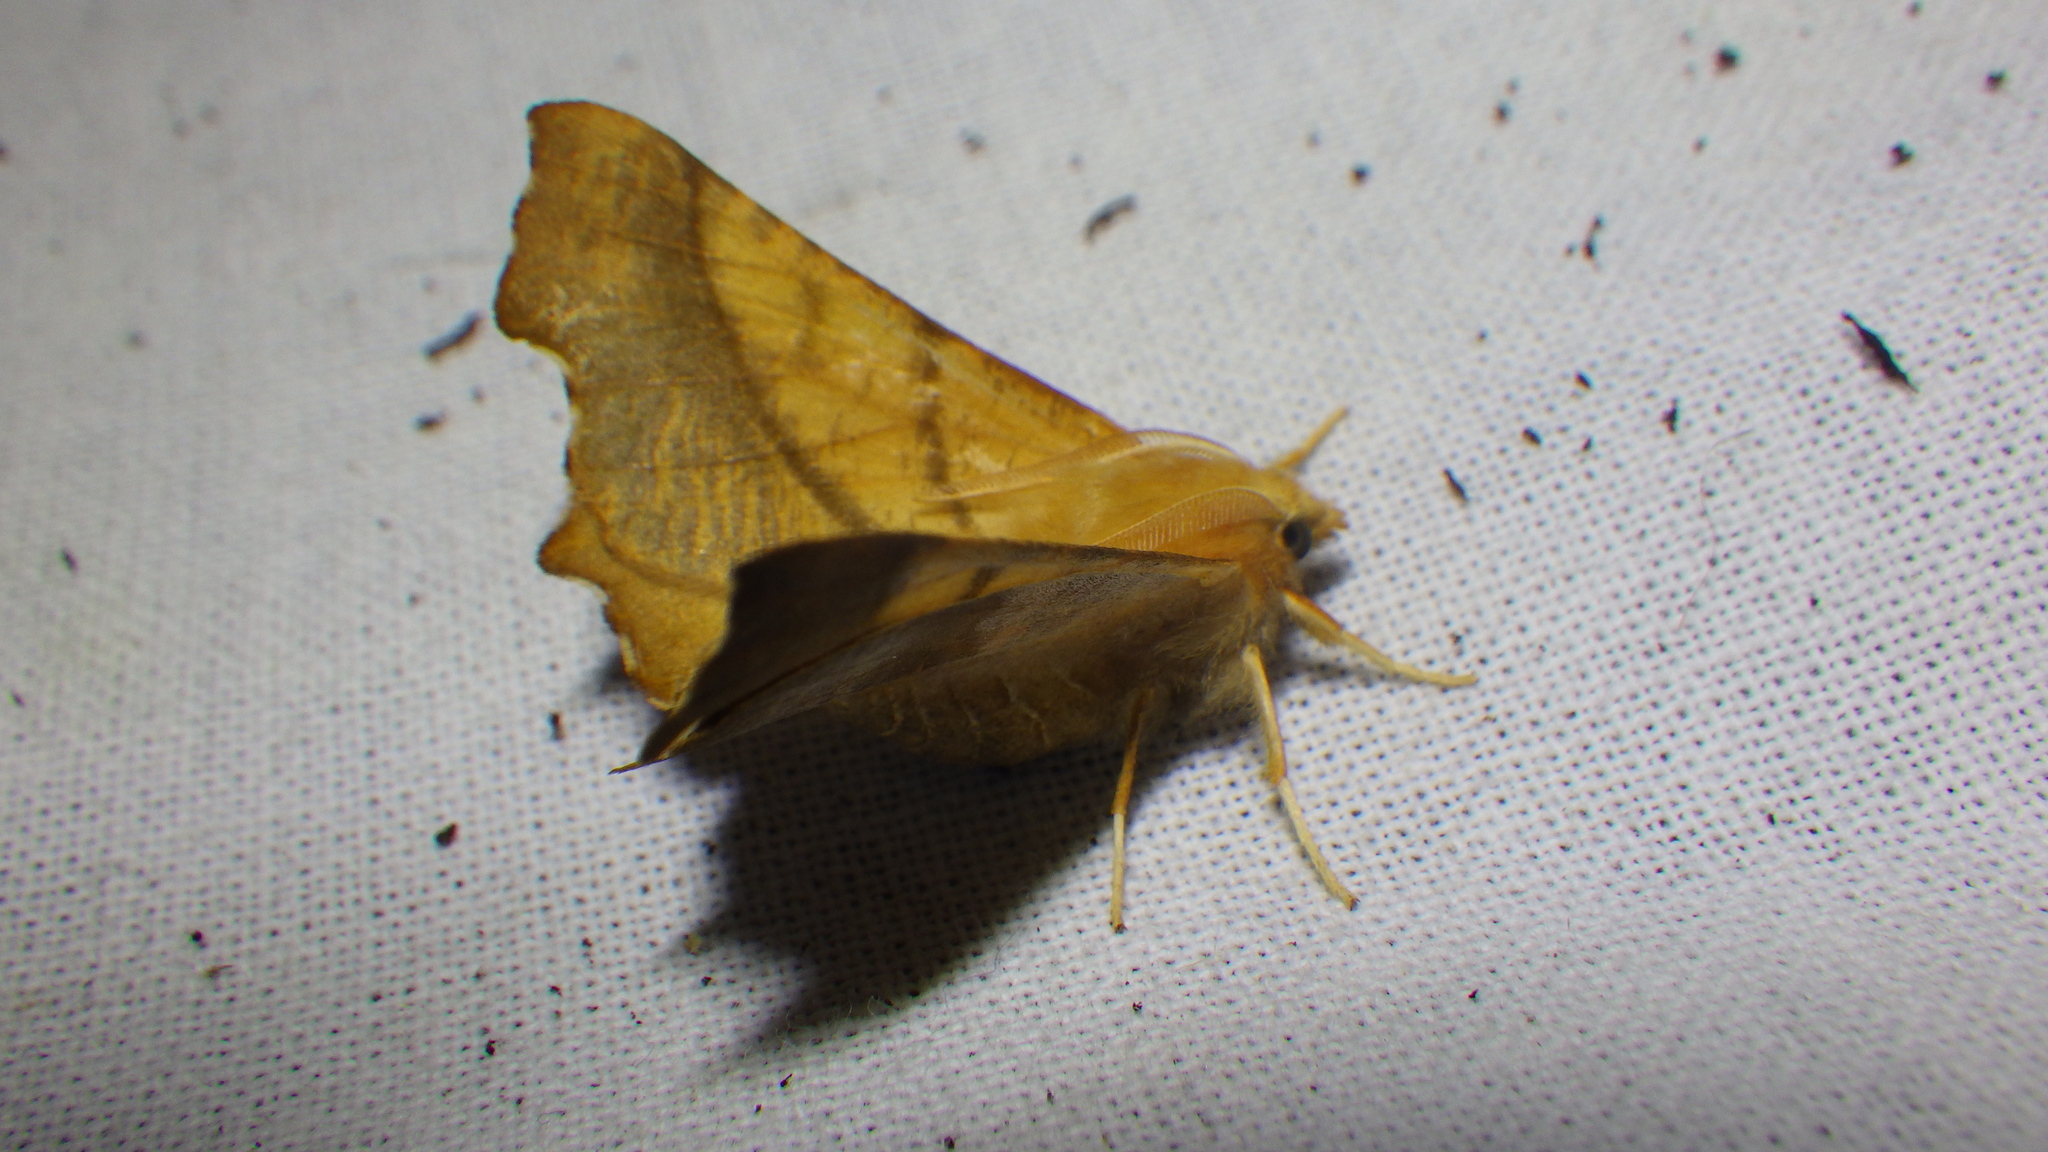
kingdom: Animalia
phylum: Arthropoda
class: Insecta
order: Lepidoptera
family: Geometridae
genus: Ennomos
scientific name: Ennomos fuscantaria
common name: Dusky thorn
